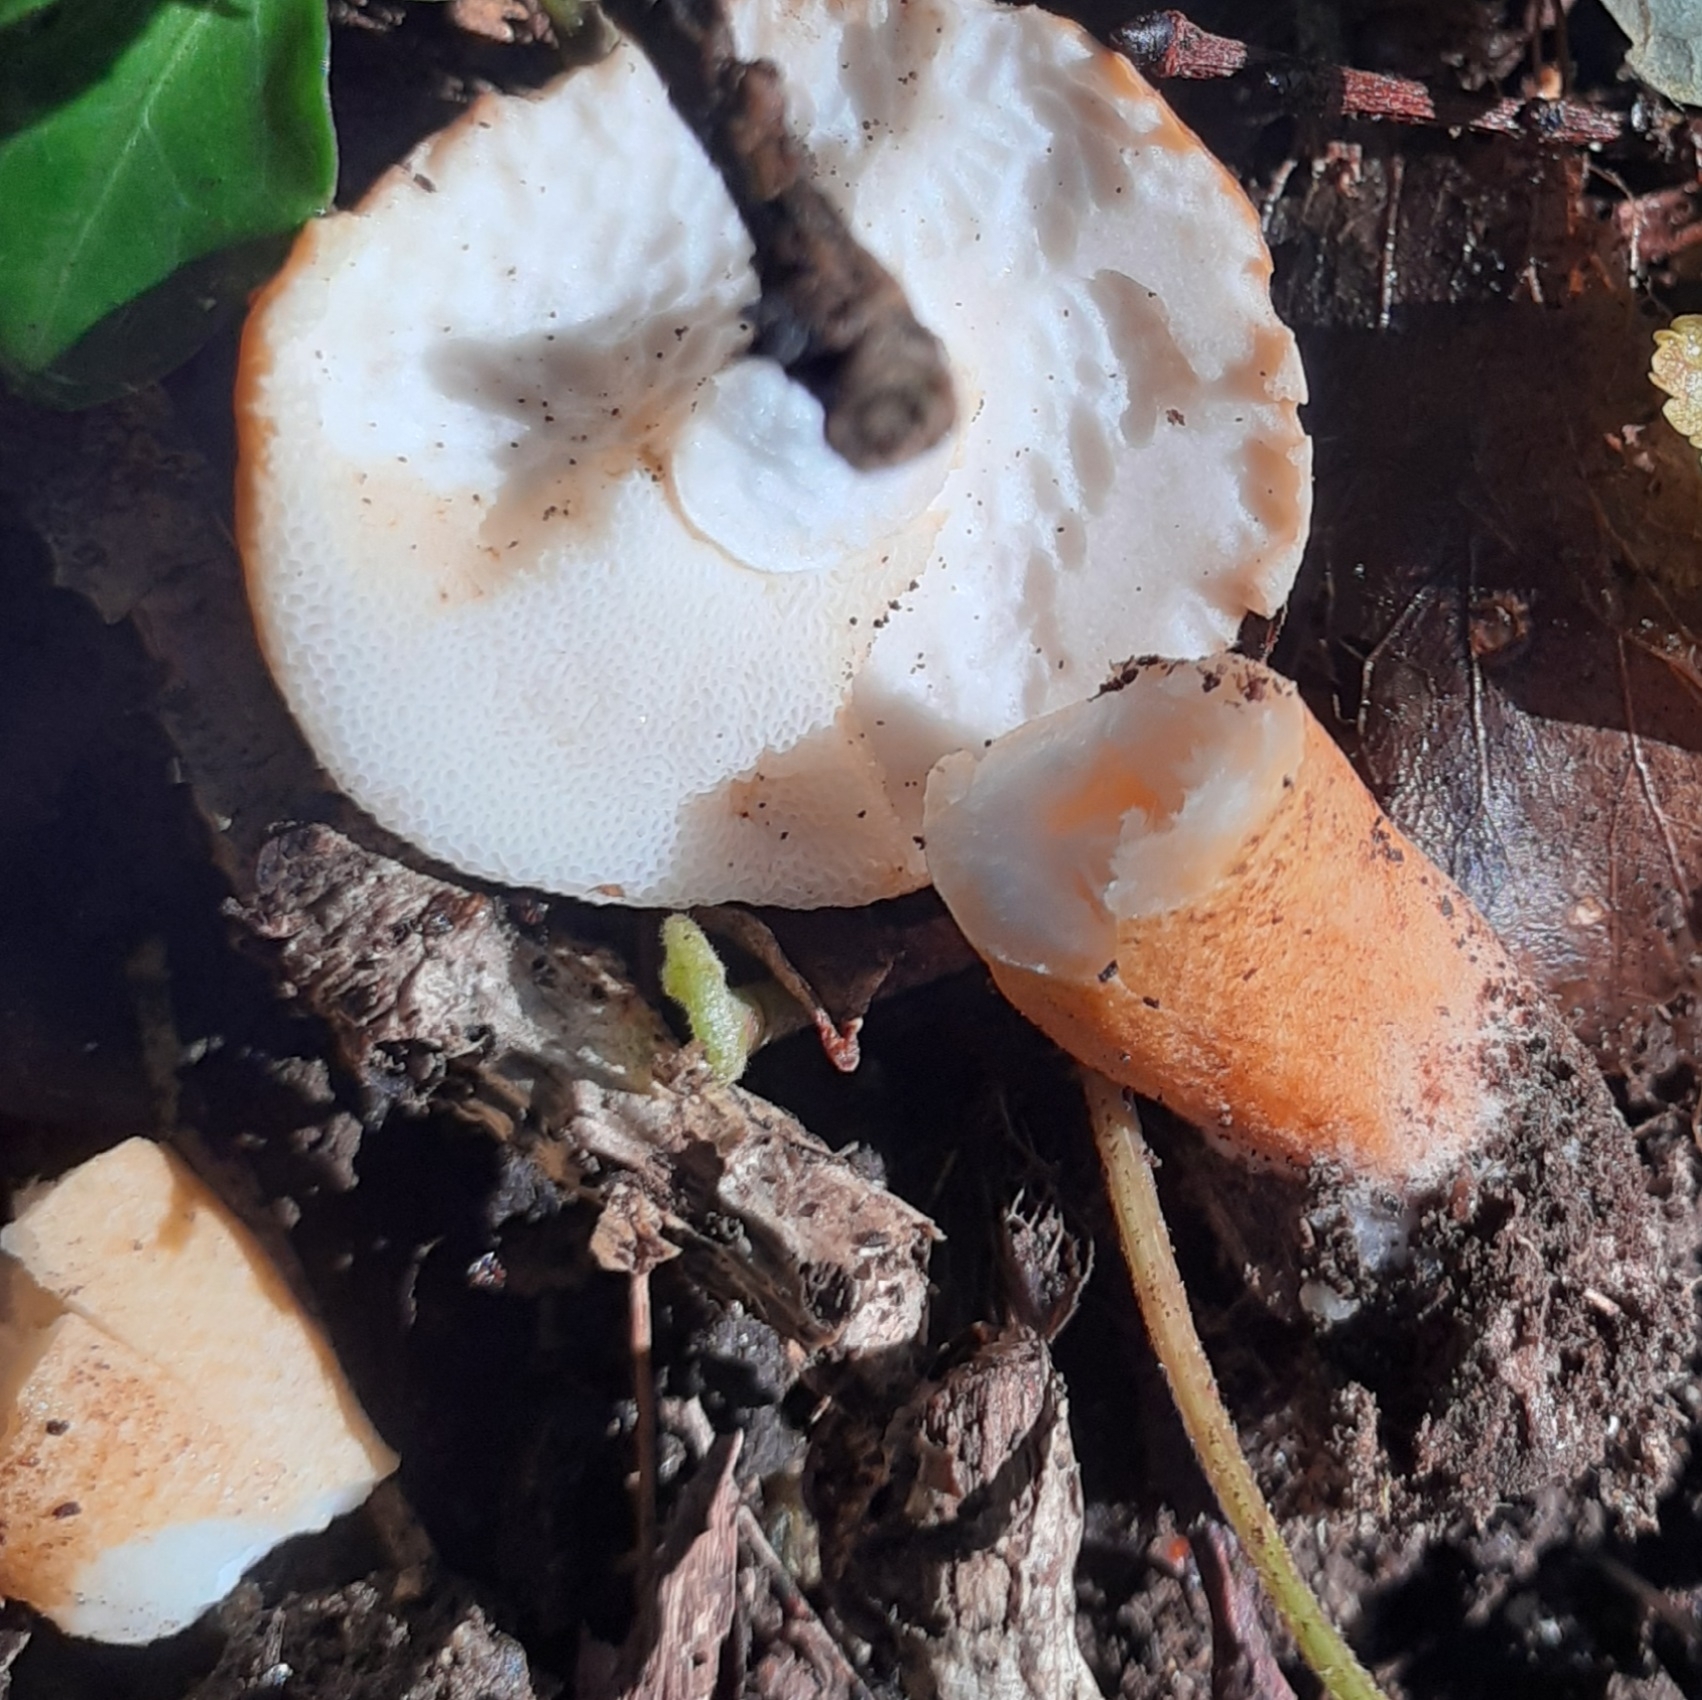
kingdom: Fungi
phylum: Basidiomycota
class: Agaricomycetes
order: Boletales
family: Gyroporaceae
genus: Gyroporus
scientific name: Gyroporus castaneus
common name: Chestnut bolete
